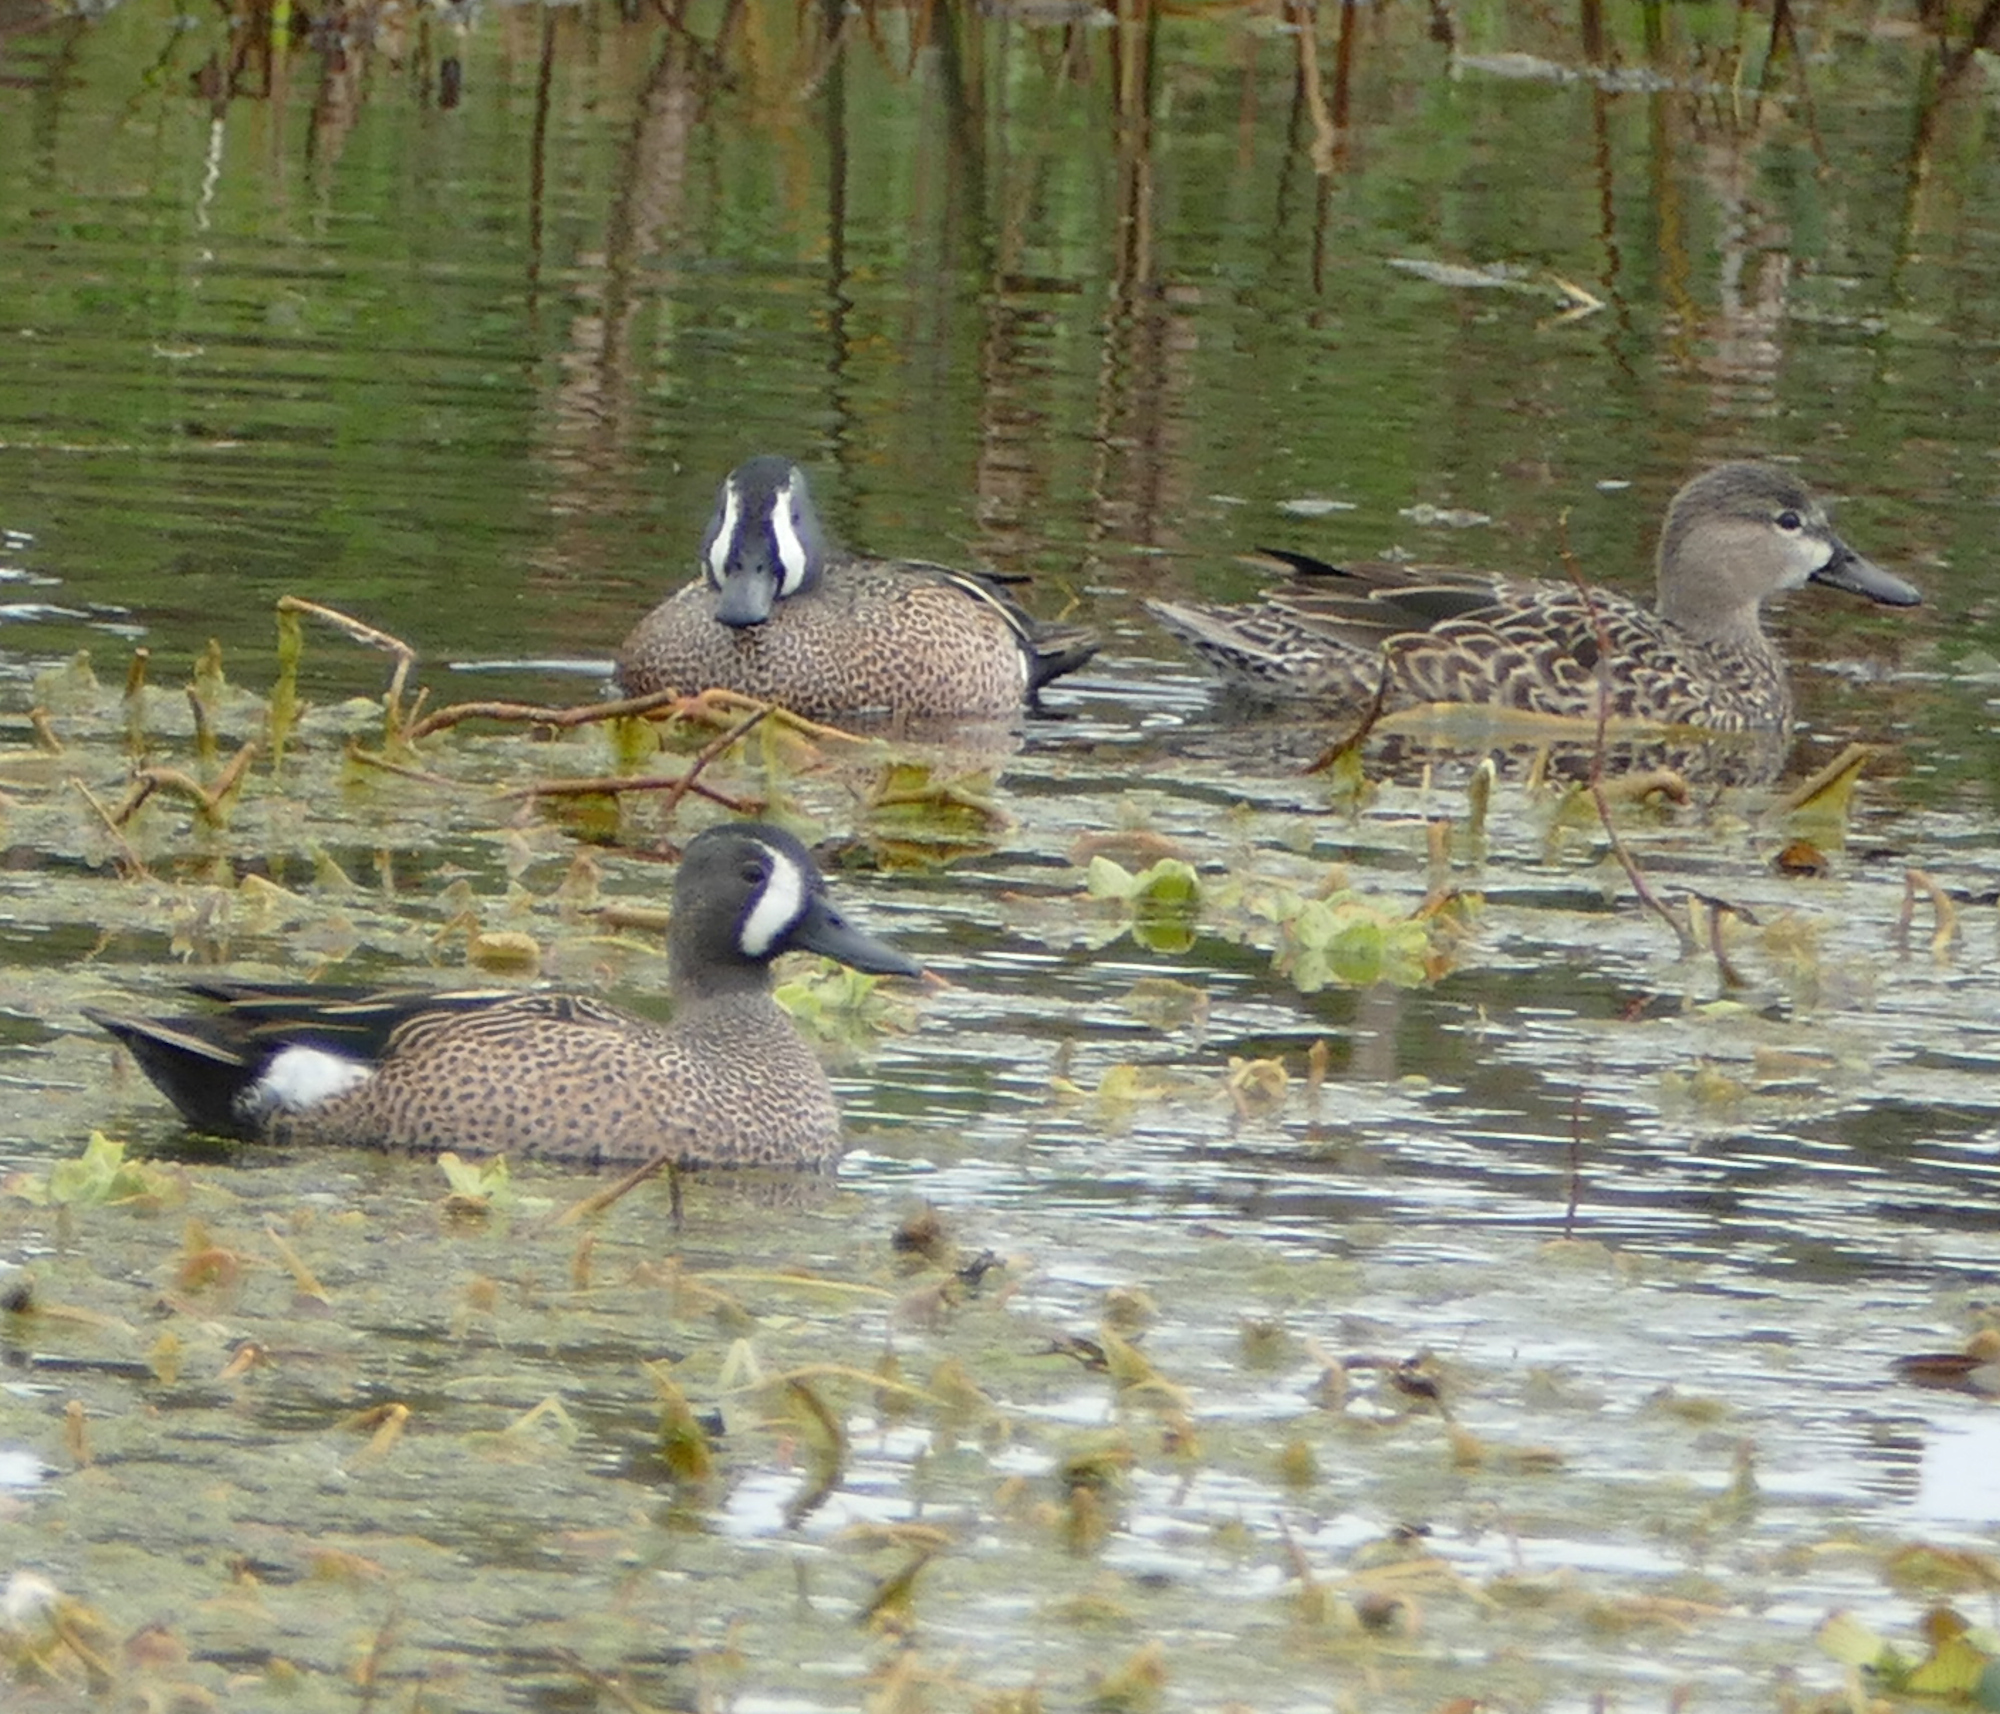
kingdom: Animalia
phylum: Chordata
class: Aves
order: Anseriformes
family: Anatidae
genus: Spatula
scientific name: Spatula discors
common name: Blue-winged teal
